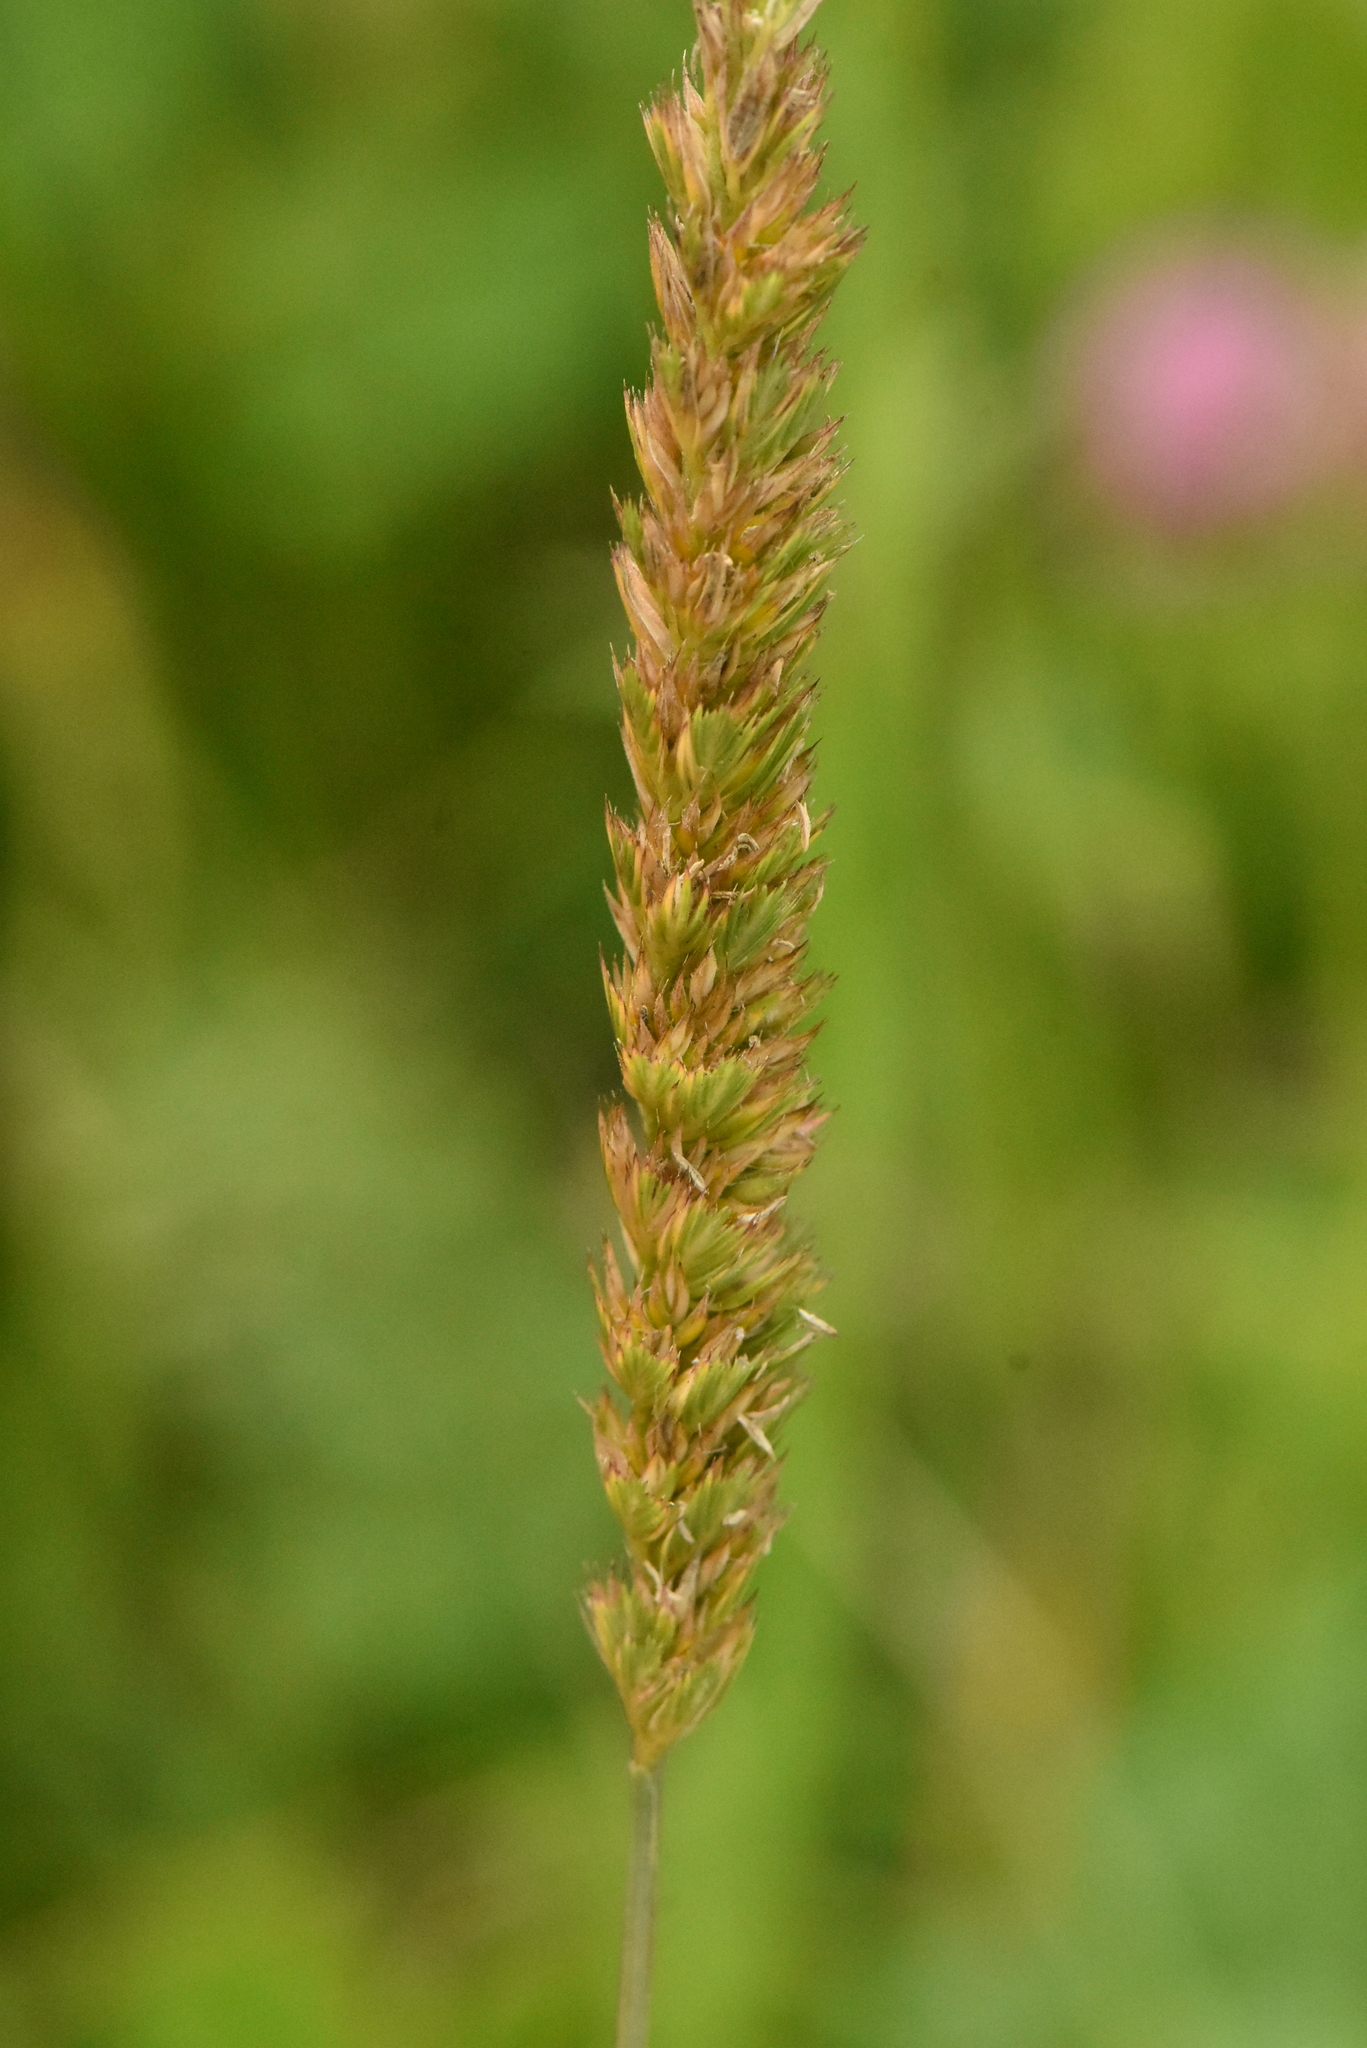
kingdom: Plantae
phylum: Tracheophyta
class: Liliopsida
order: Poales
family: Poaceae
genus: Cynosurus
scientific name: Cynosurus cristatus
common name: Crested dog's-tail
